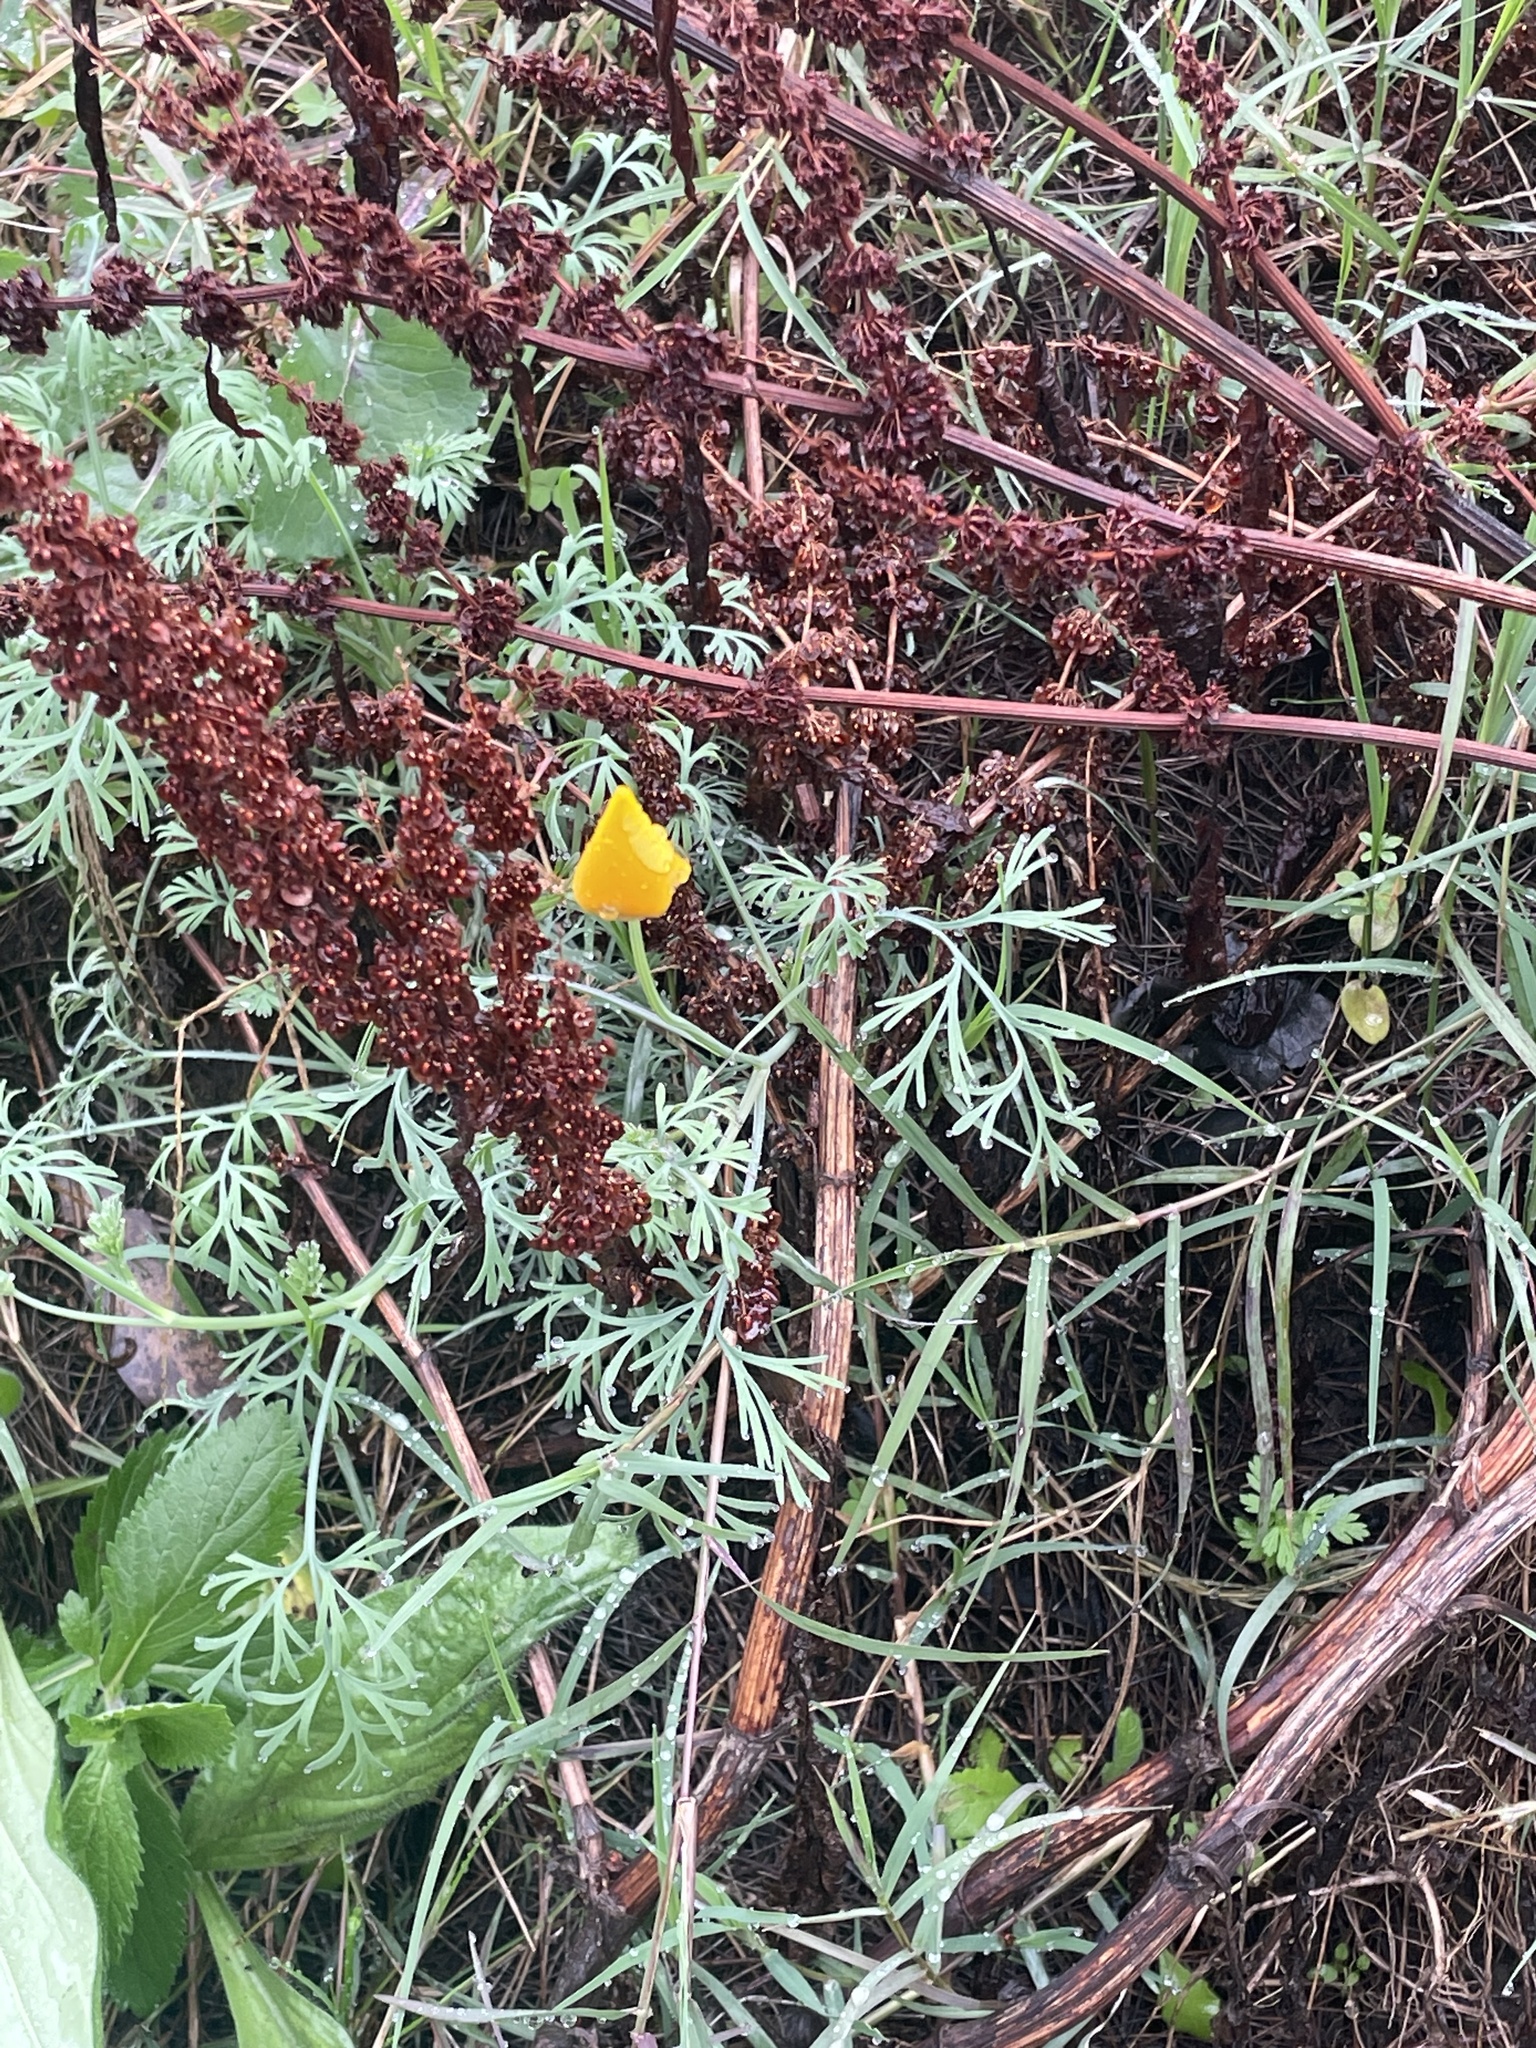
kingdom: Plantae
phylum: Tracheophyta
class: Magnoliopsida
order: Ranunculales
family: Papaveraceae
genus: Eschscholzia
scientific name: Eschscholzia californica
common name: California poppy
